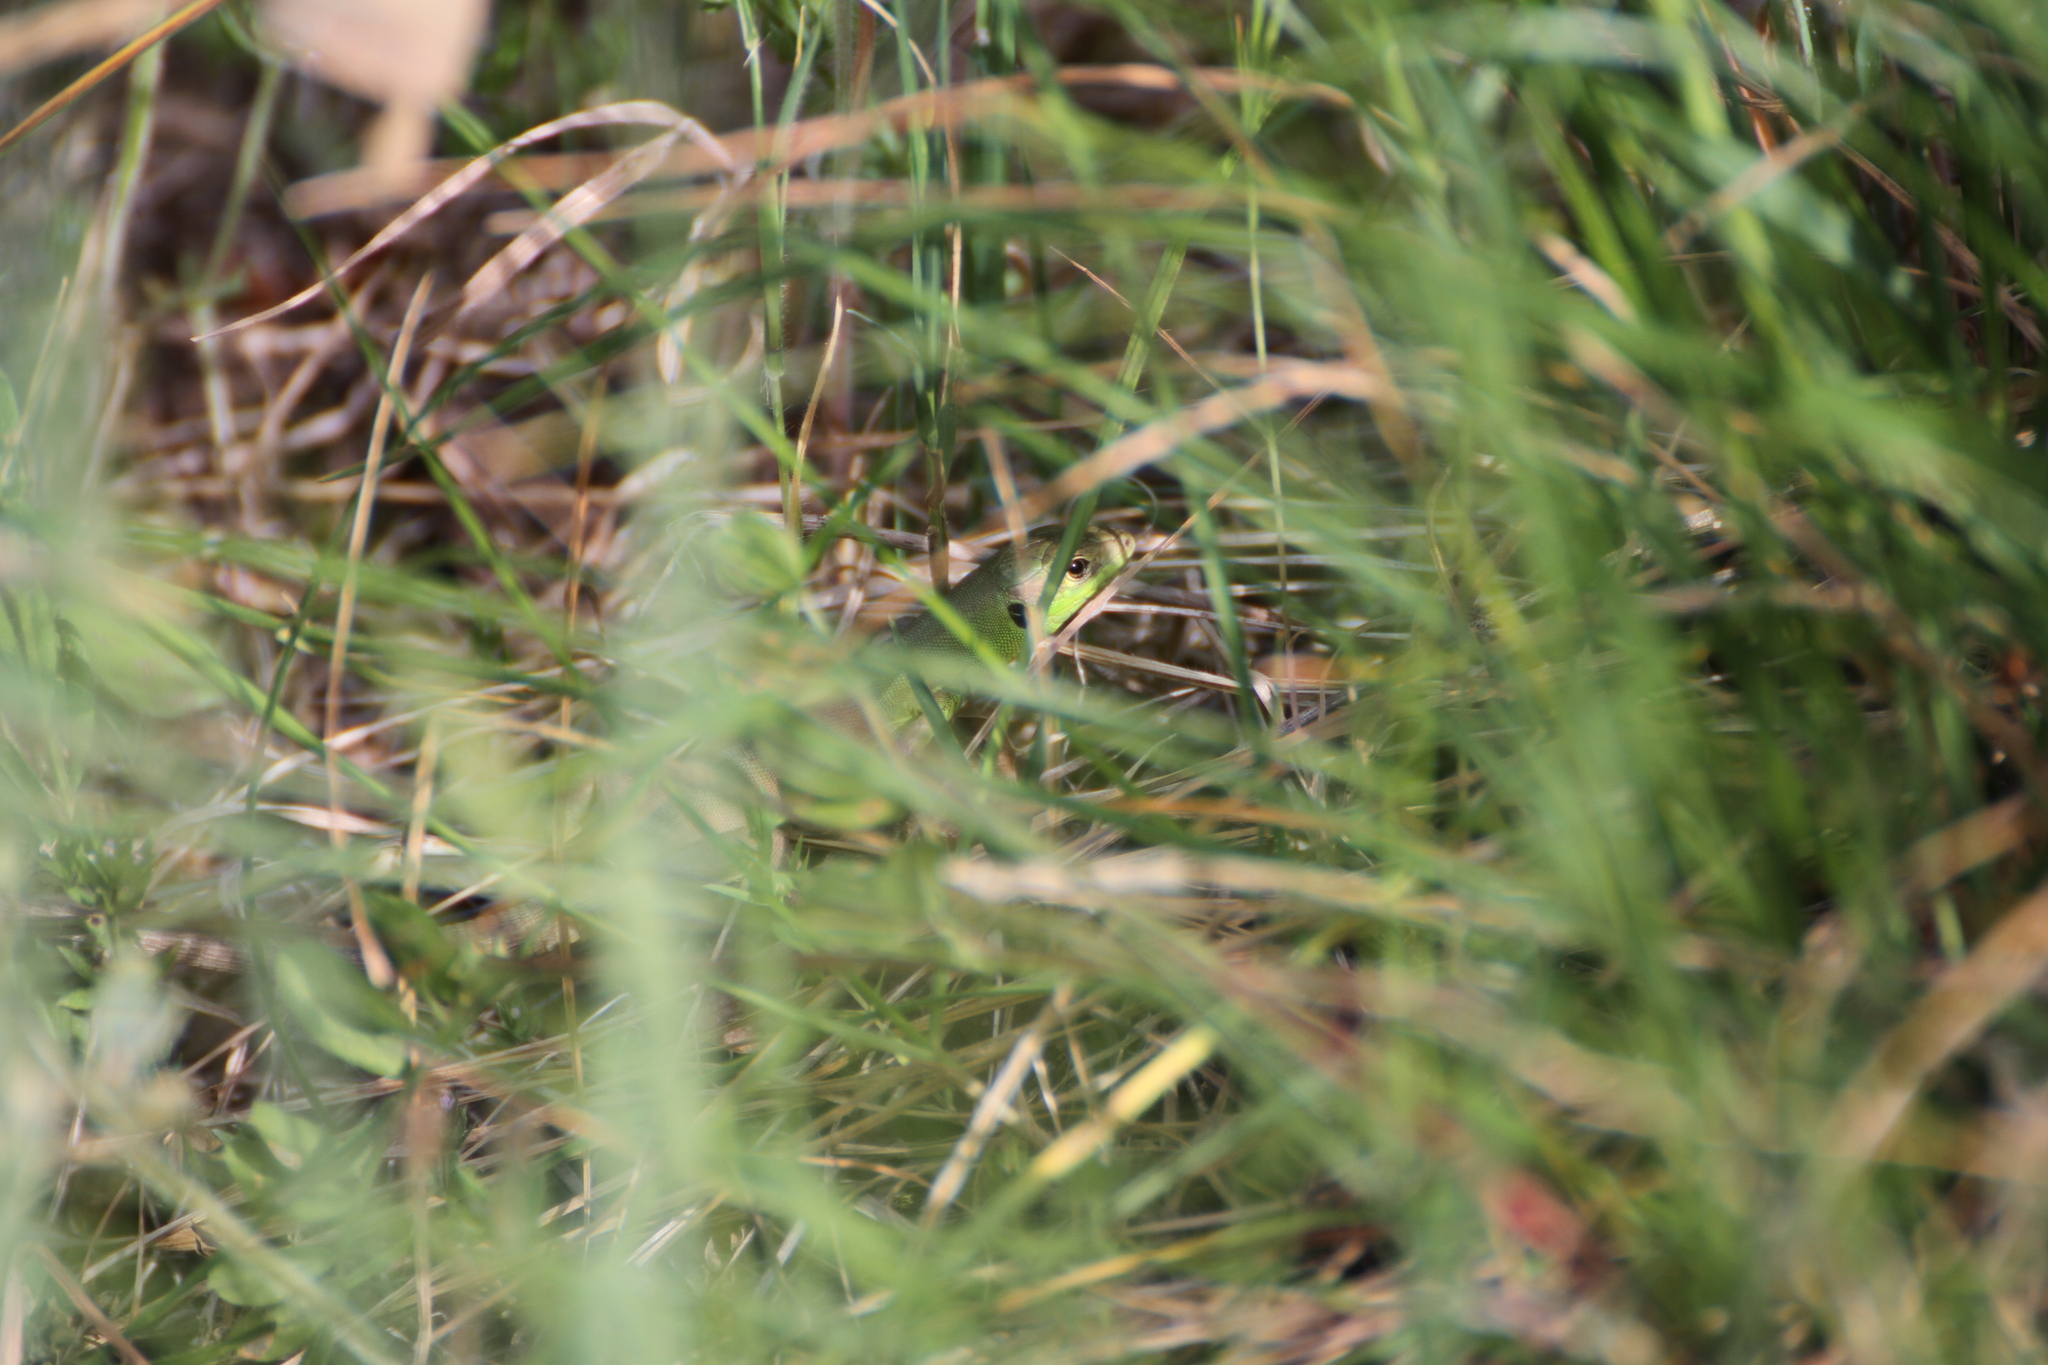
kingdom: Animalia
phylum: Chordata
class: Squamata
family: Lacertidae
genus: Lacerta
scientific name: Lacerta bilineata
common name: Western green lizard
